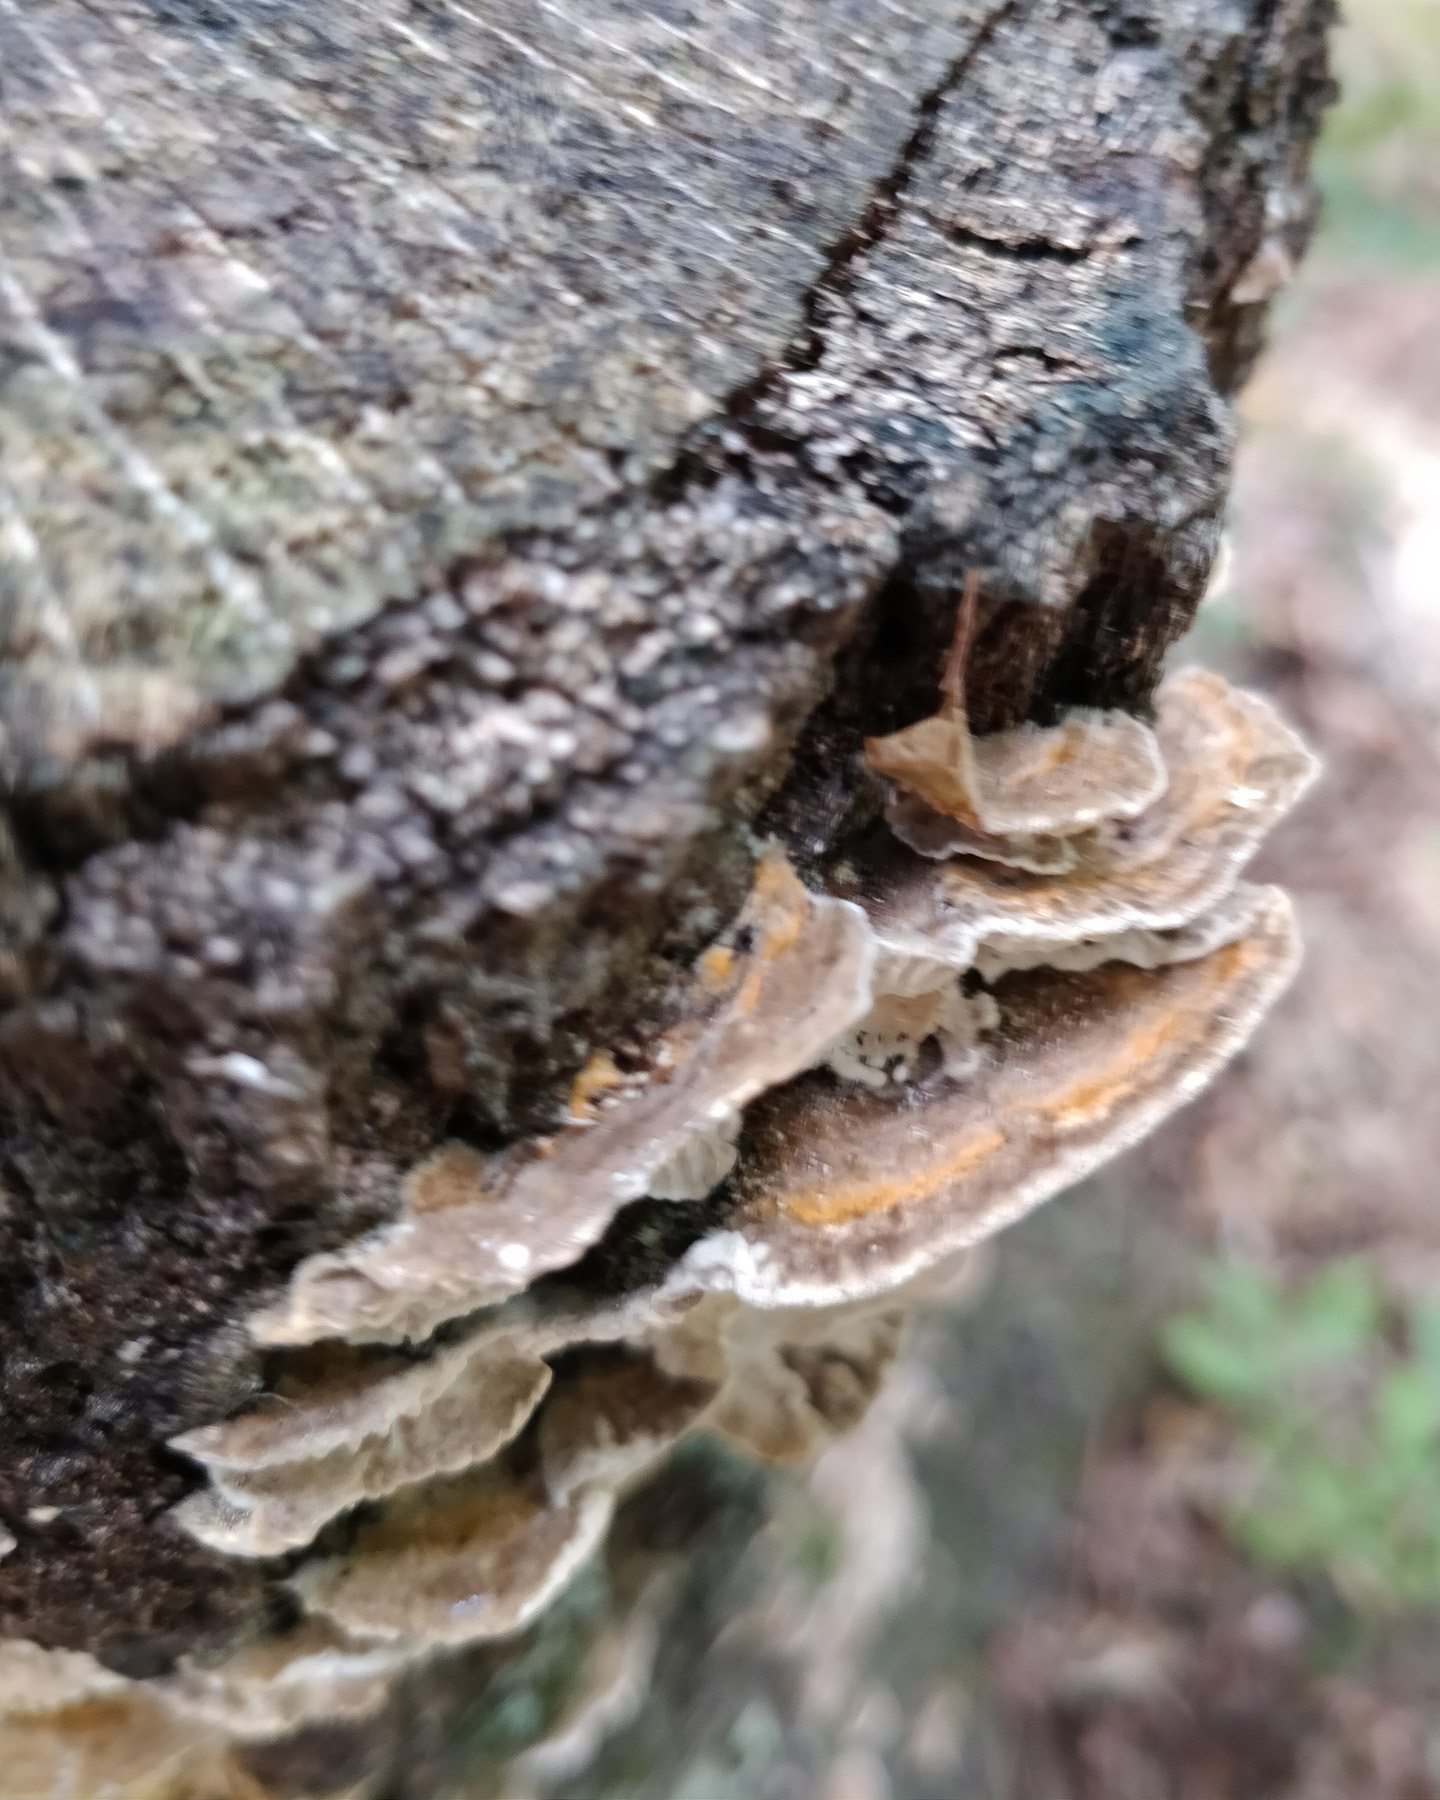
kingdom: Fungi
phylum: Basidiomycota
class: Agaricomycetes
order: Polyporales
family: Polyporaceae
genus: Lenzites
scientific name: Lenzites betulinus
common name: Birch mazegill
